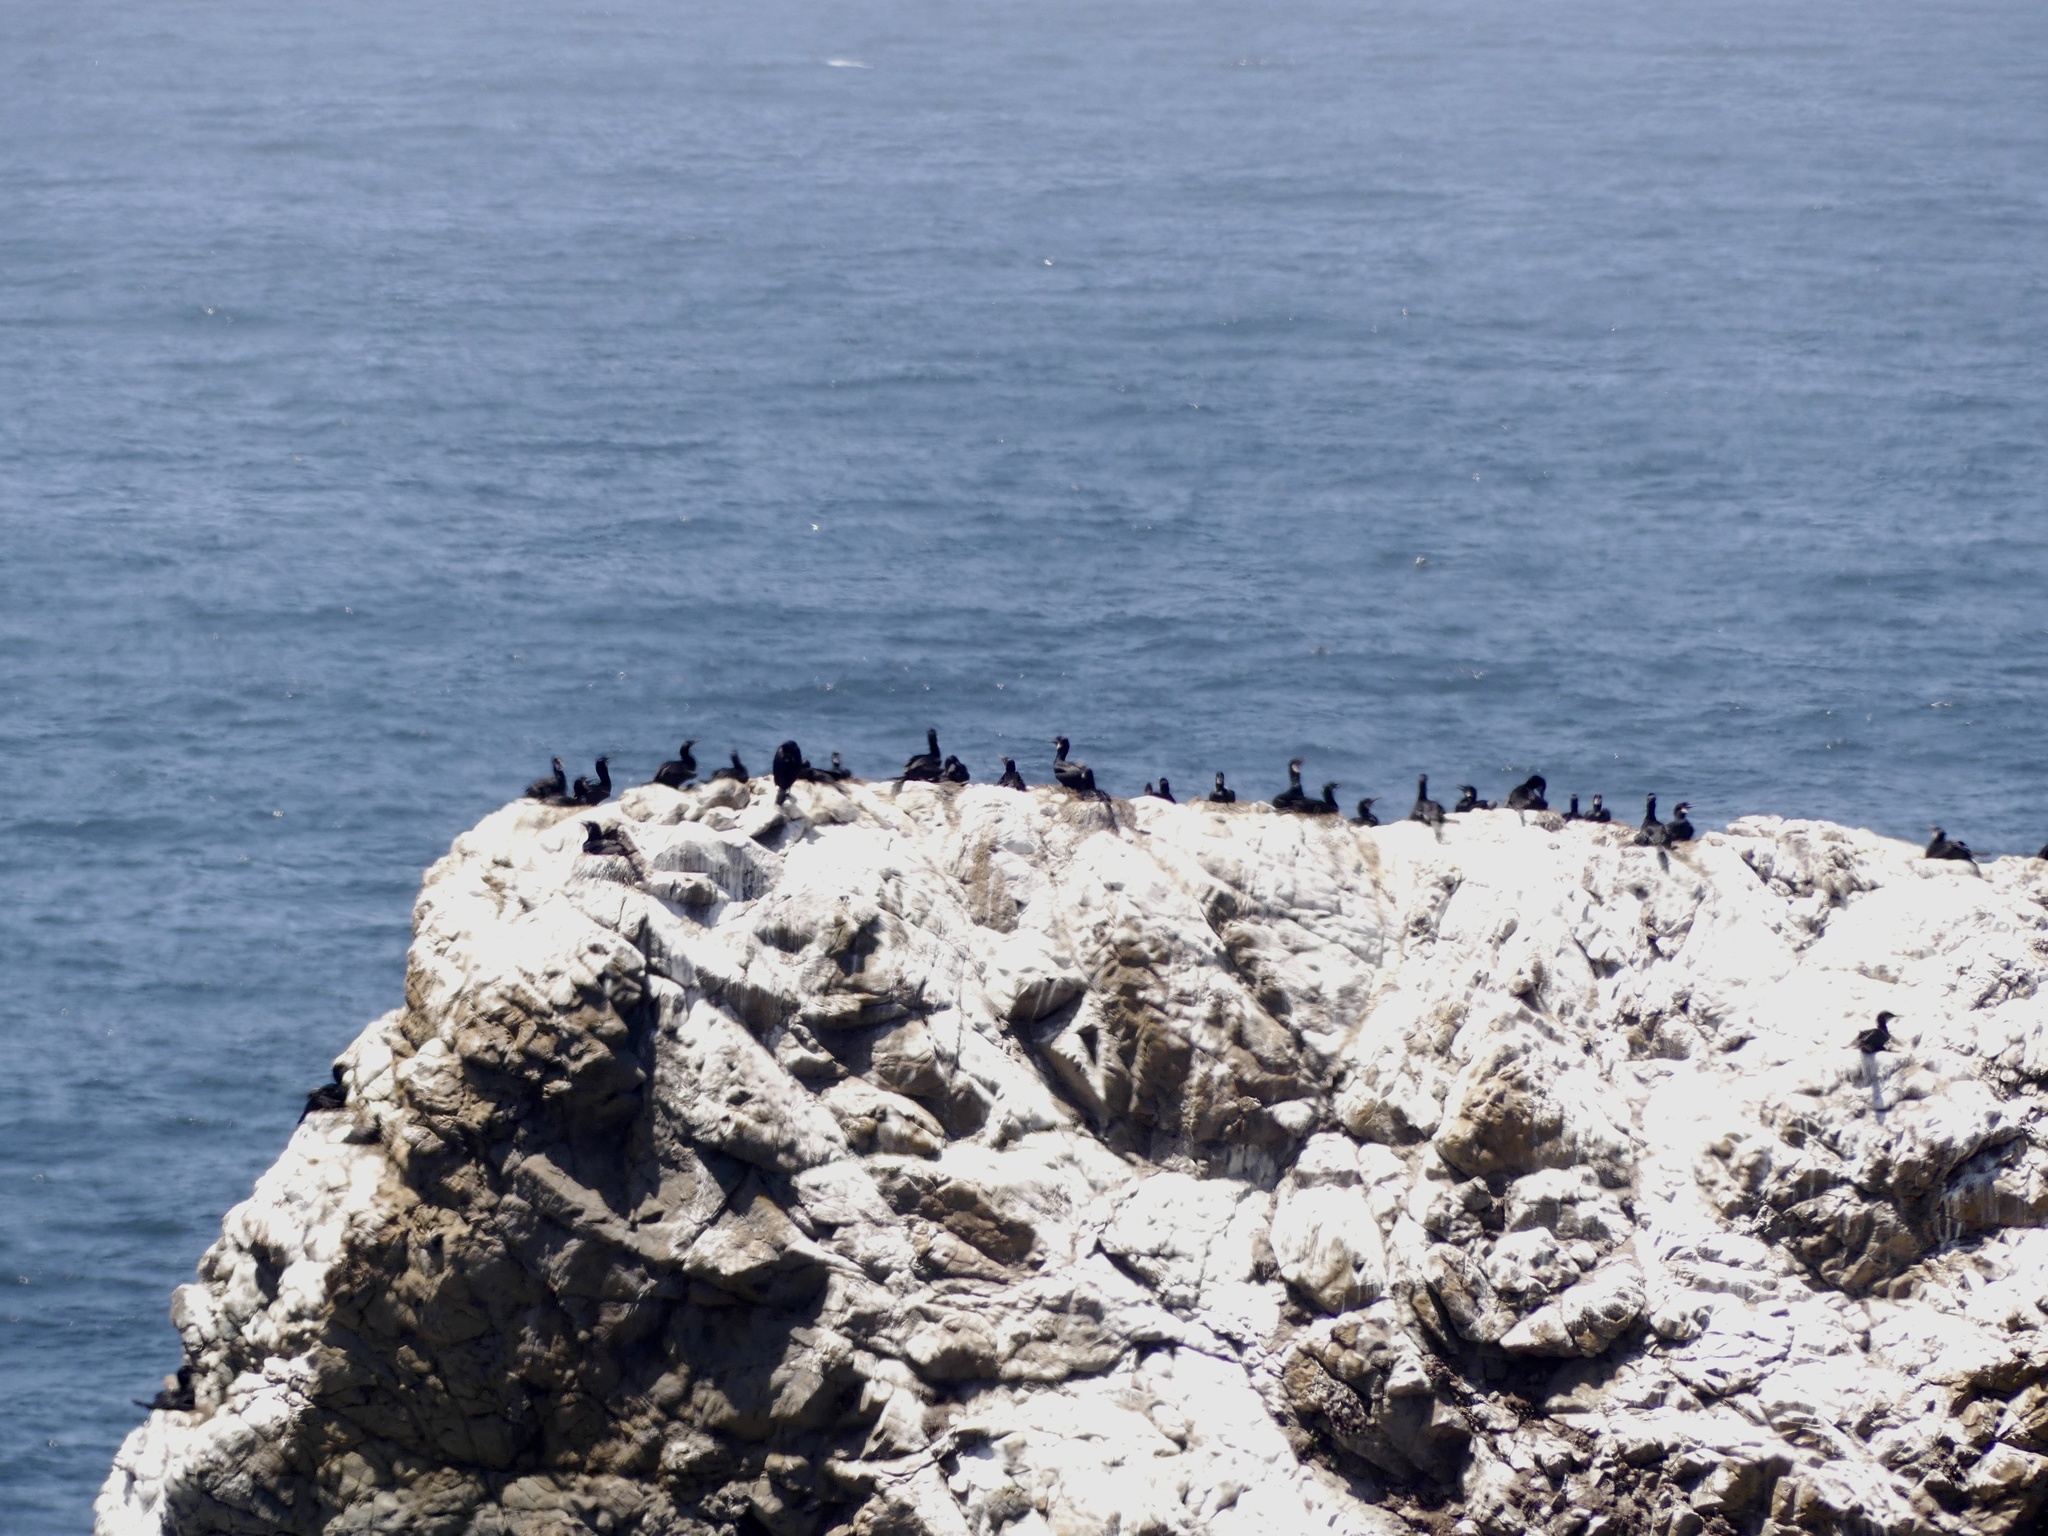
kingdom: Animalia
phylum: Chordata
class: Aves
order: Suliformes
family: Phalacrocoracidae
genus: Urile
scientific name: Urile penicillatus
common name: Brandt's cormorant
